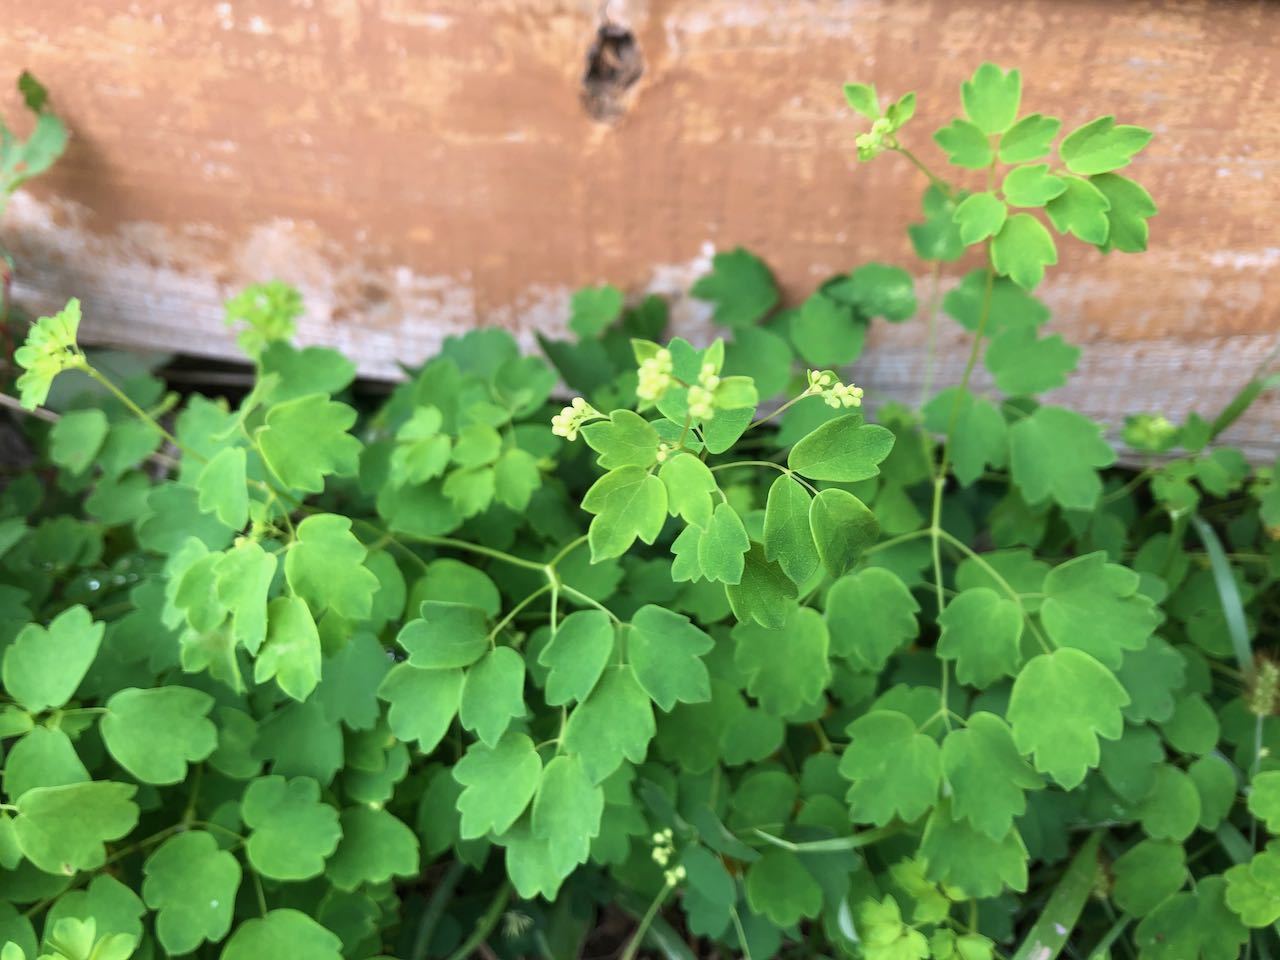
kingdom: Plantae
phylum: Tracheophyta
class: Magnoliopsida
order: Ranunculales
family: Ranunculaceae
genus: Thalictrum
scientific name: Thalictrum minus
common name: Lesser meadow-rue
